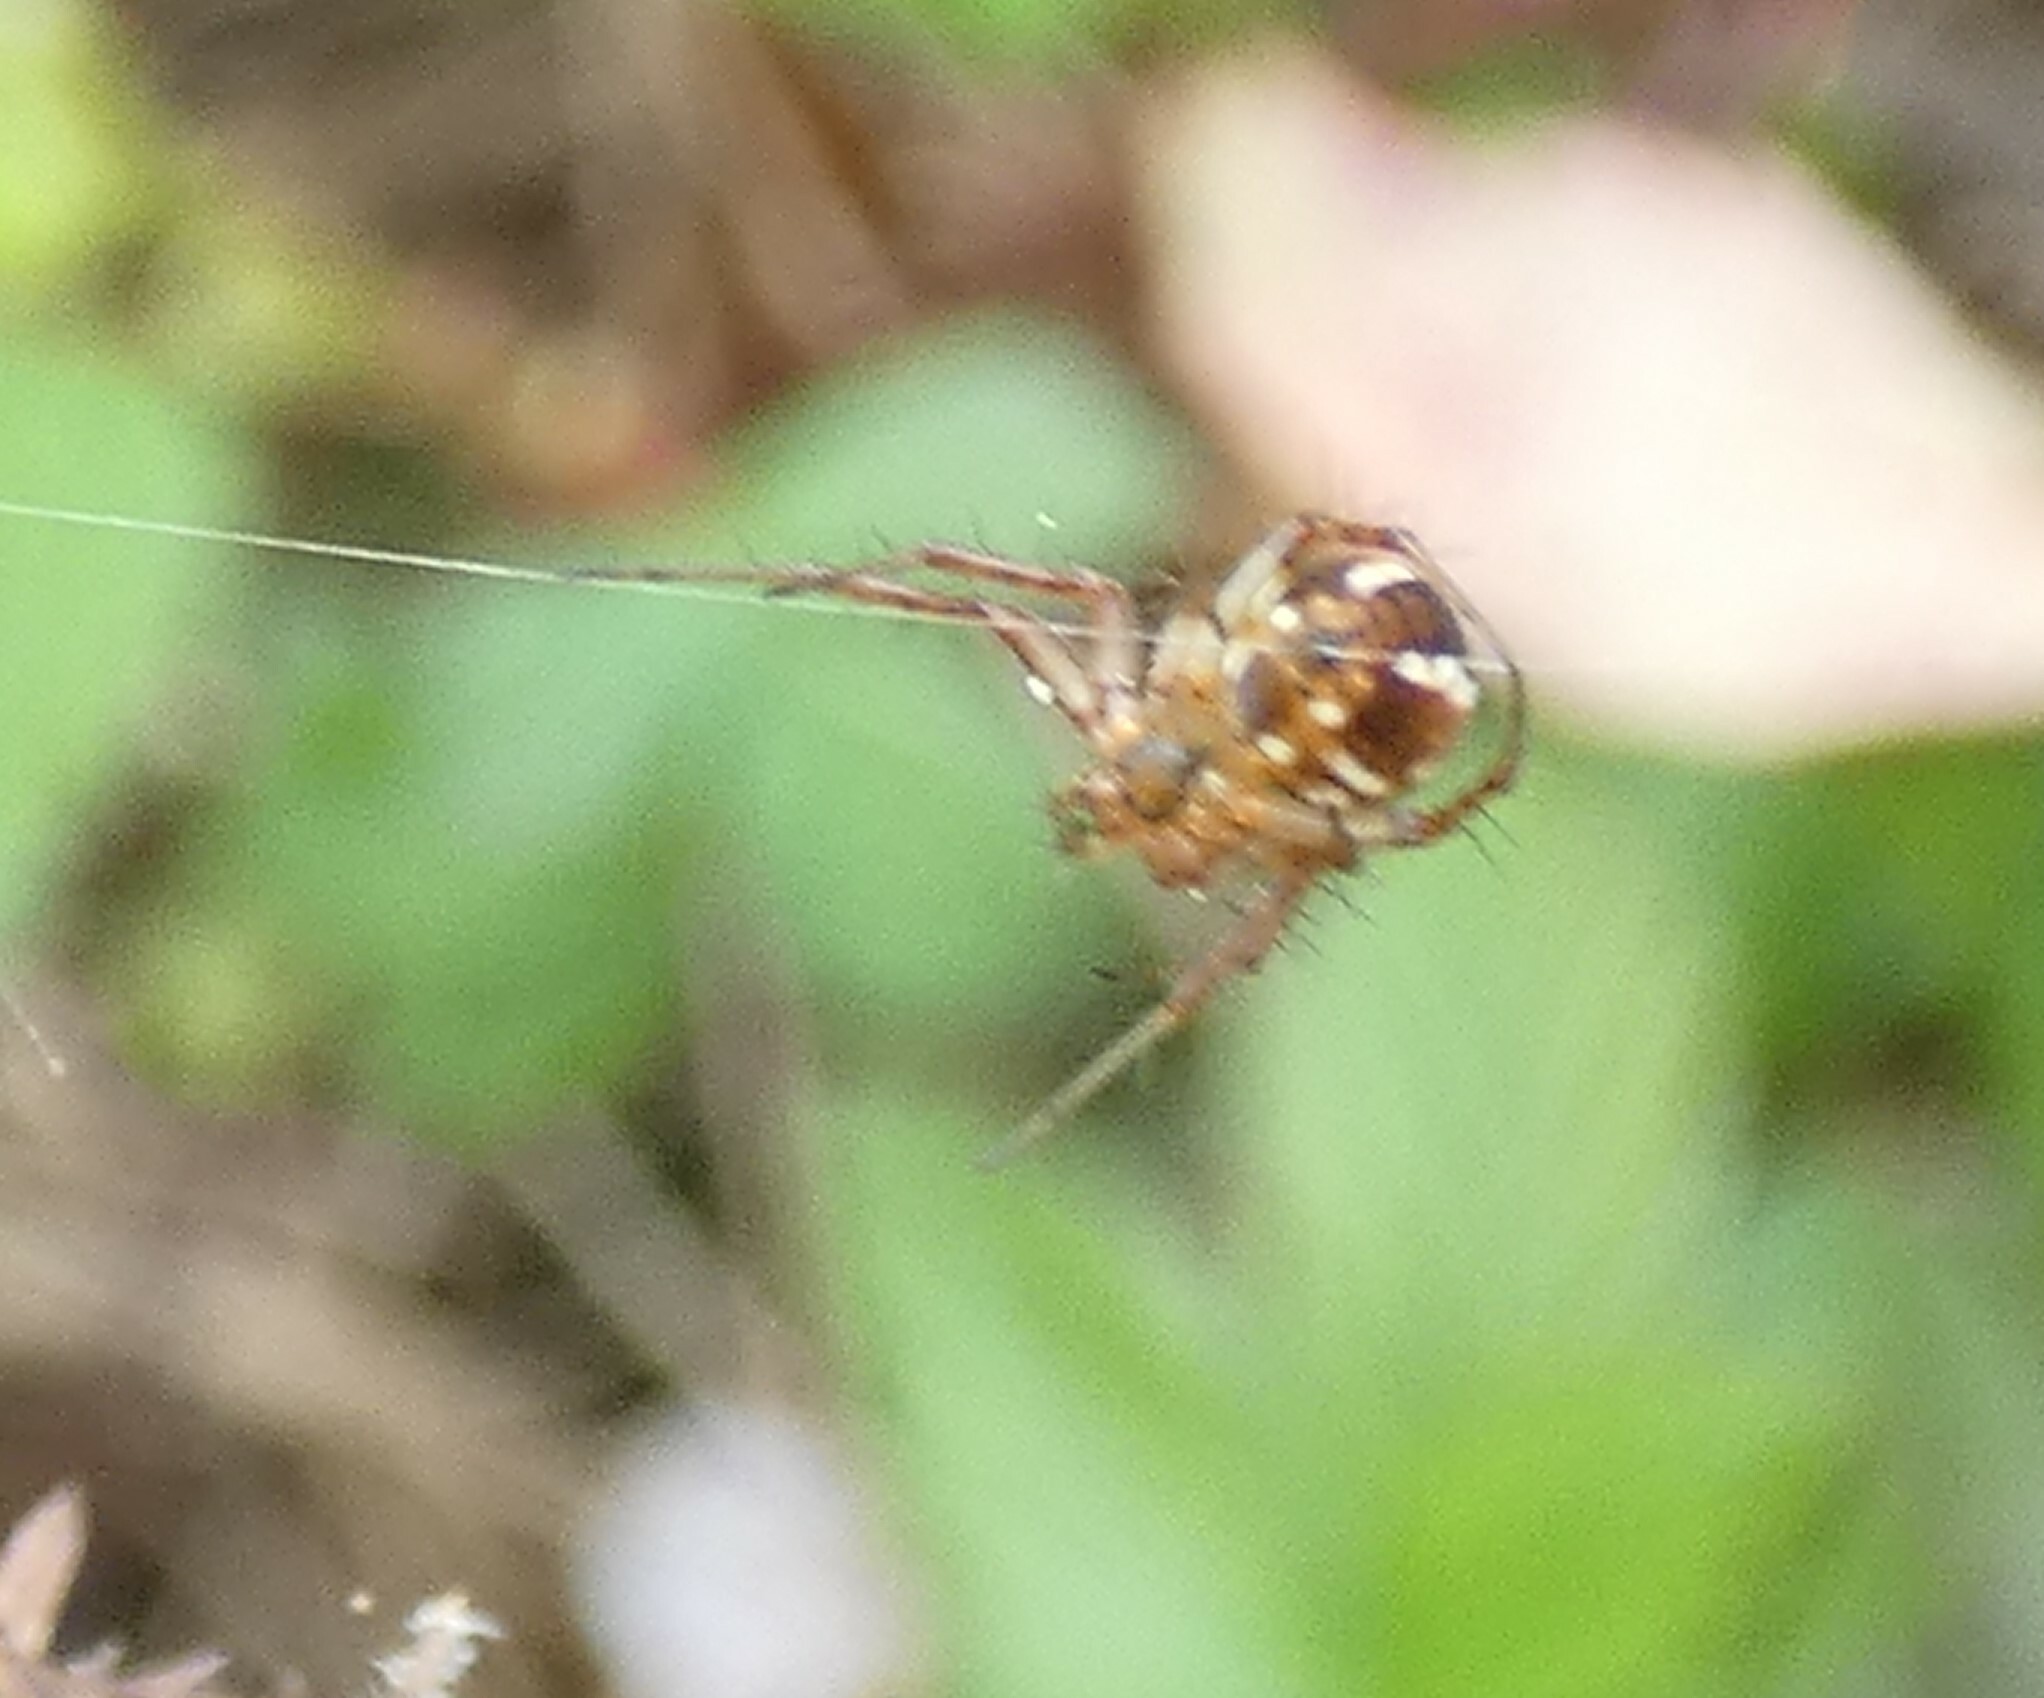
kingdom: Animalia
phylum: Arthropoda
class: Arachnida
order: Araneae
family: Araneidae
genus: Mangora
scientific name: Mangora gibberosa
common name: Lined orbweaver
